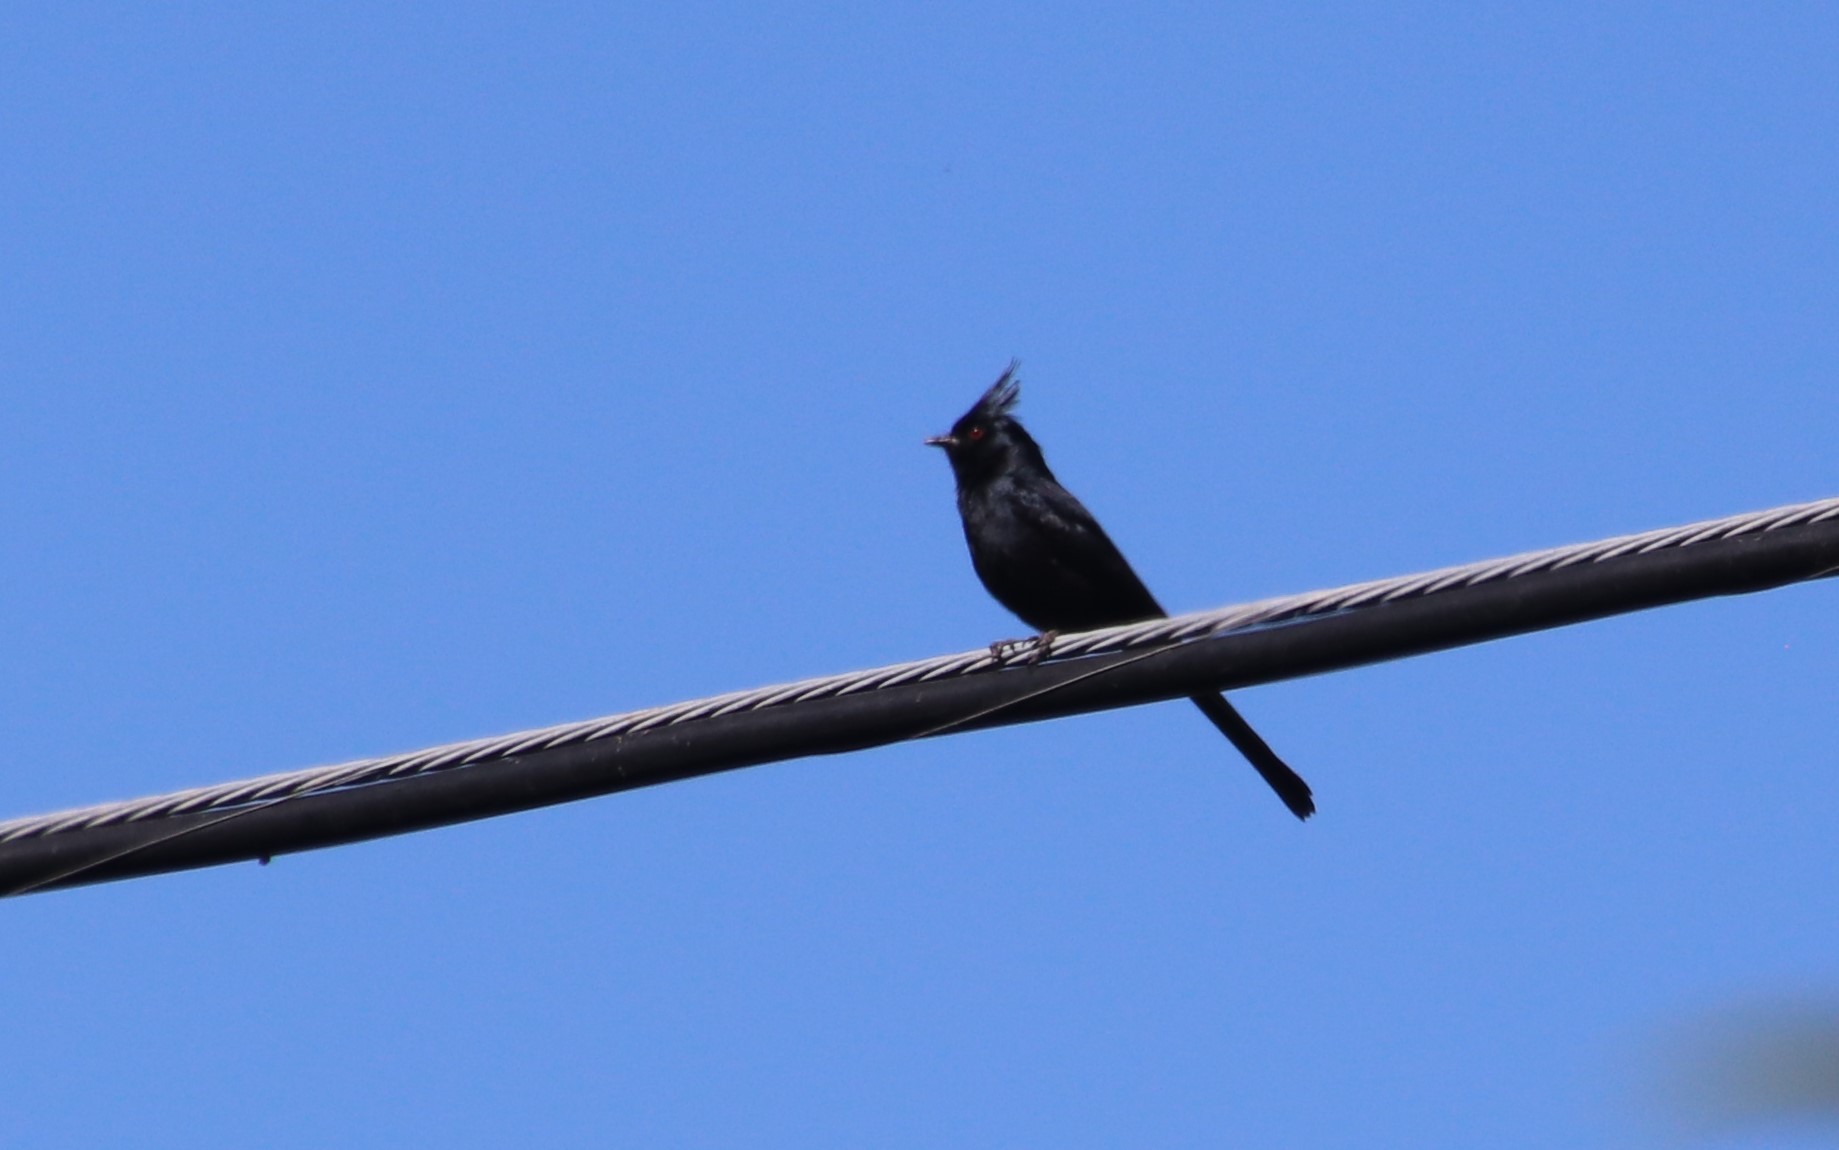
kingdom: Animalia
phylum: Chordata
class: Aves
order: Passeriformes
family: Ptilogonatidae
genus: Phainopepla
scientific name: Phainopepla nitens
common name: Phainopepla
